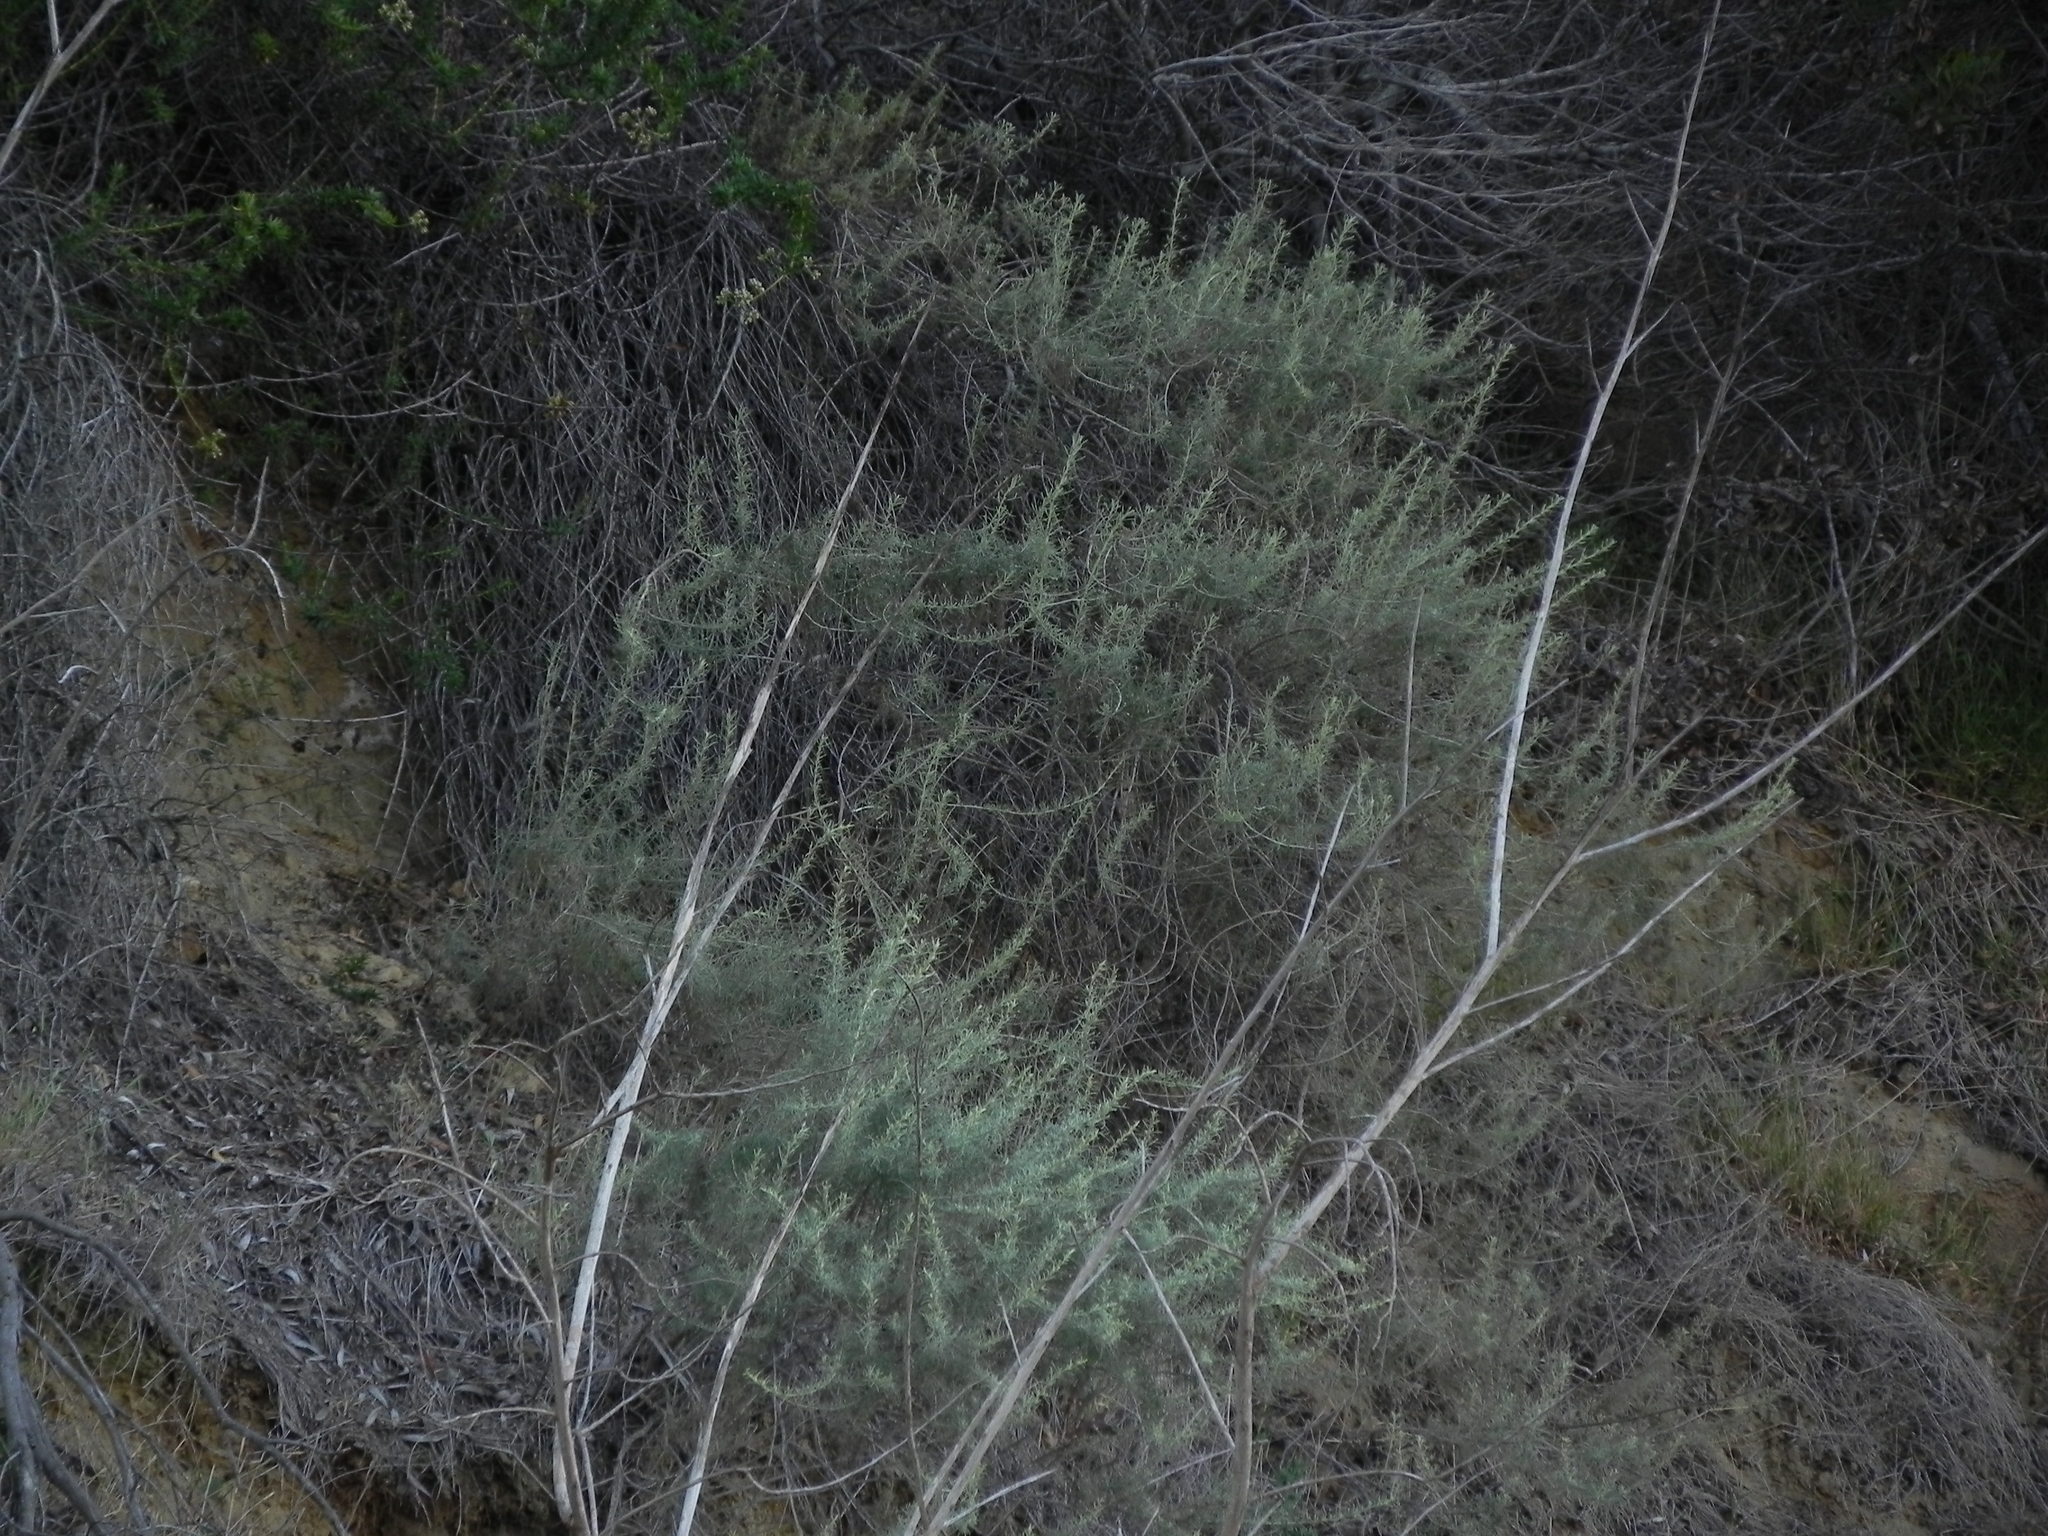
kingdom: Plantae
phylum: Tracheophyta
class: Magnoliopsida
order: Asterales
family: Asteraceae
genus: Artemisia
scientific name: Artemisia californica
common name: California sagebrush
